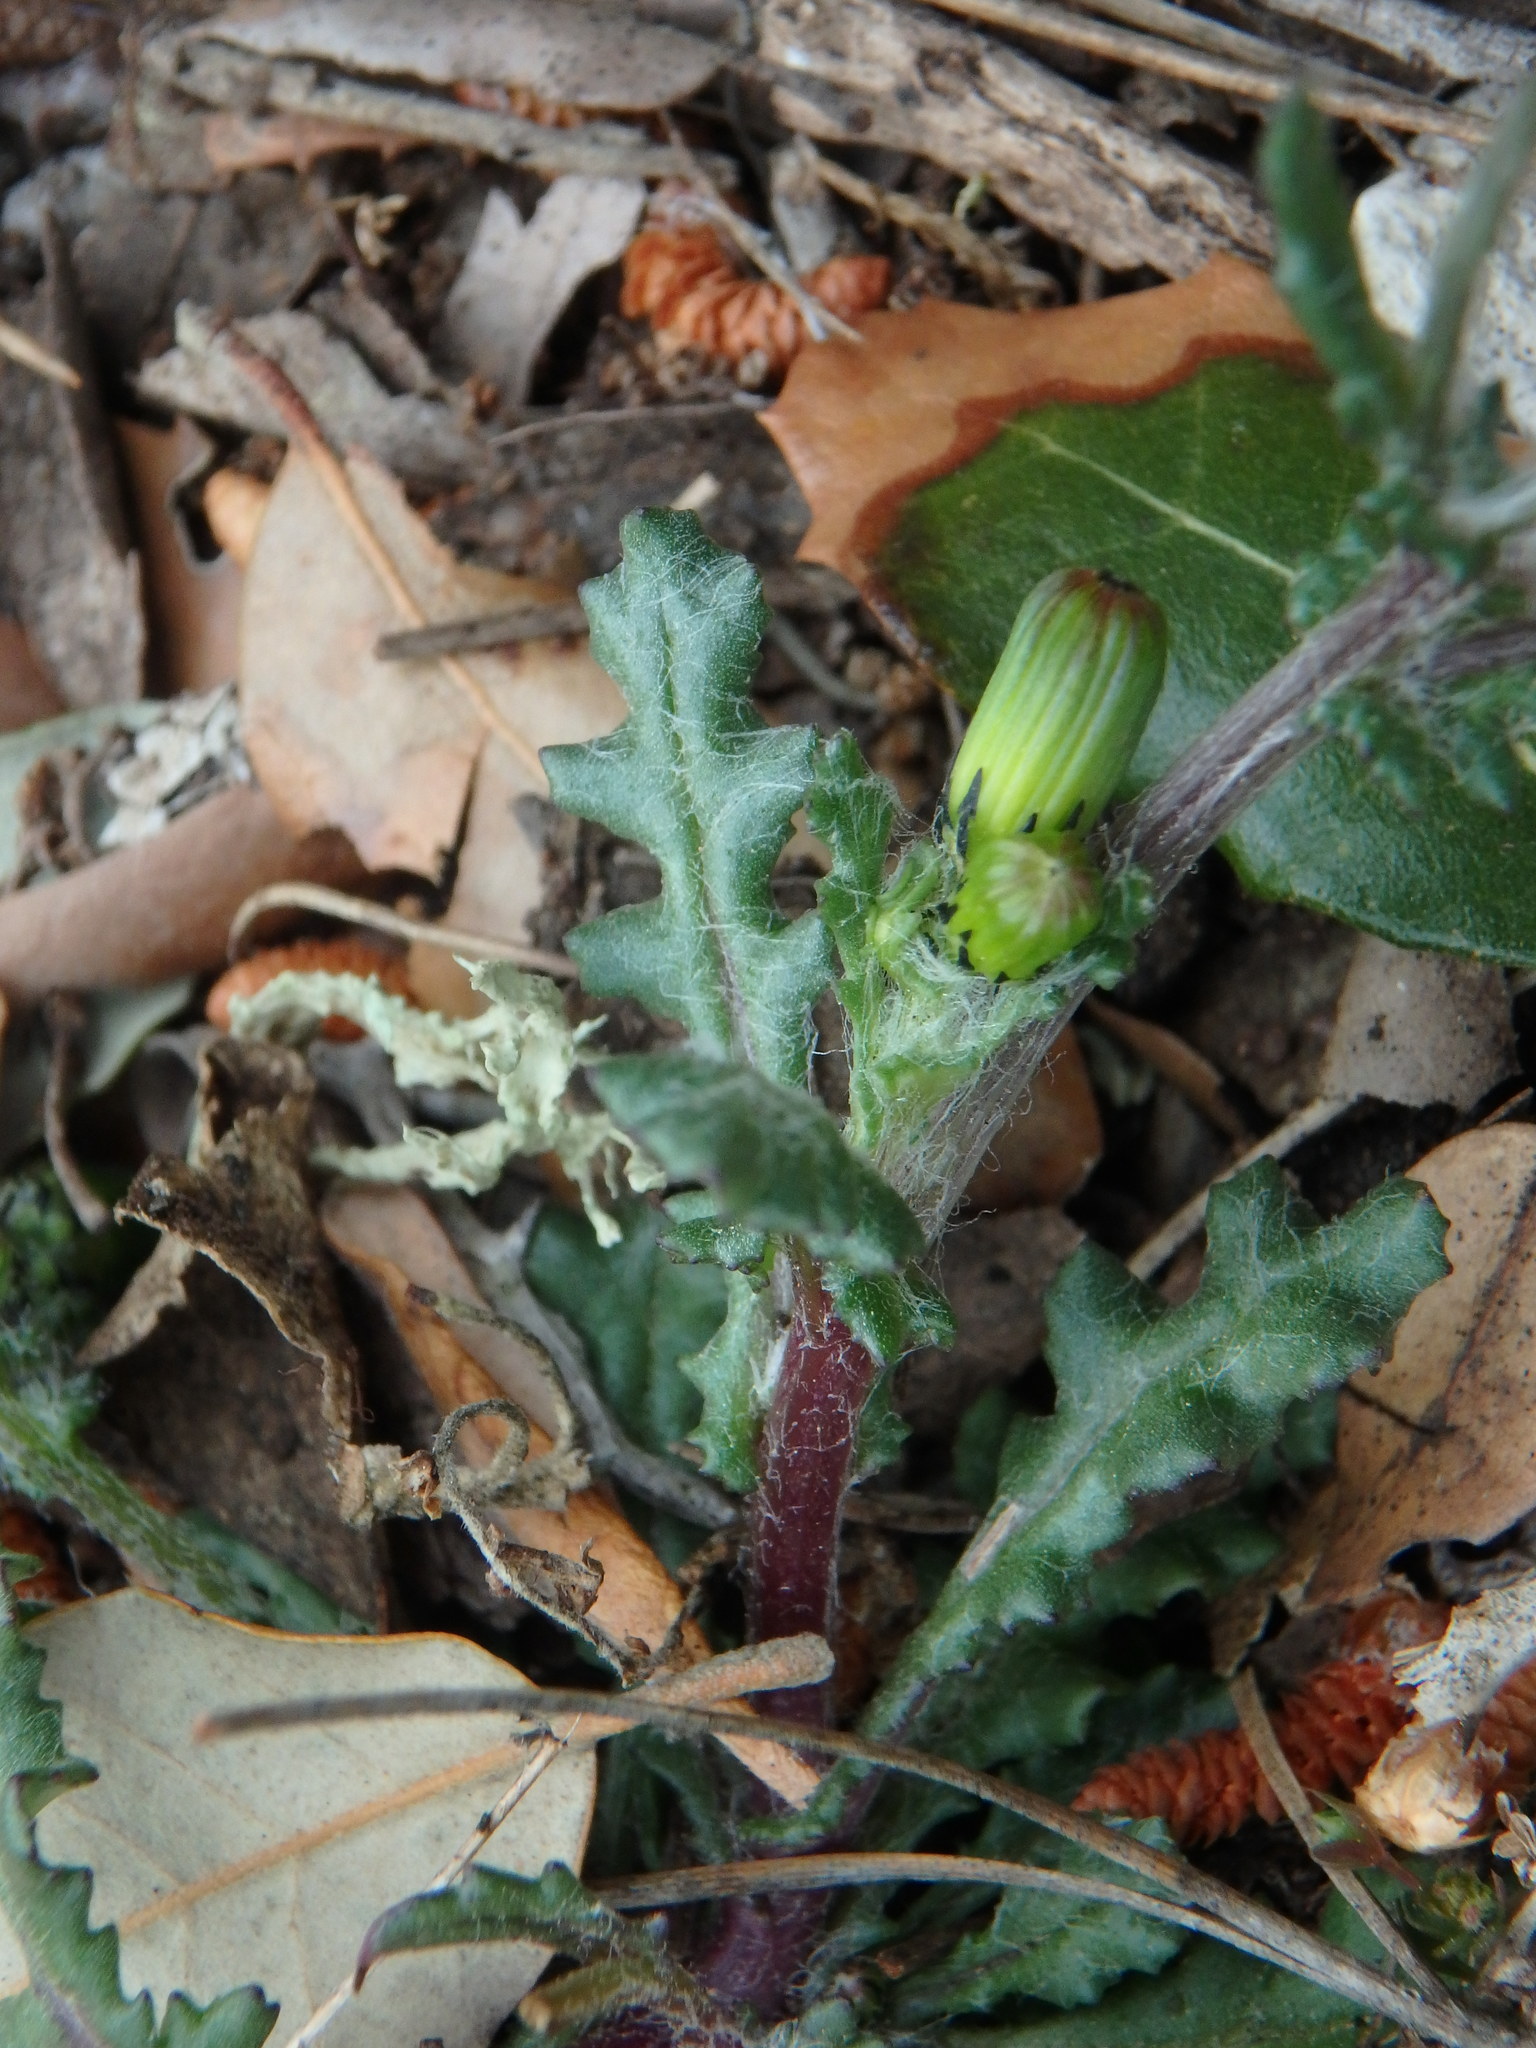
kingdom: Plantae
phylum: Tracheophyta
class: Magnoliopsida
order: Asterales
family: Asteraceae
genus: Senecio
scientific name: Senecio vulgaris
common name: Old-man-in-the-spring
